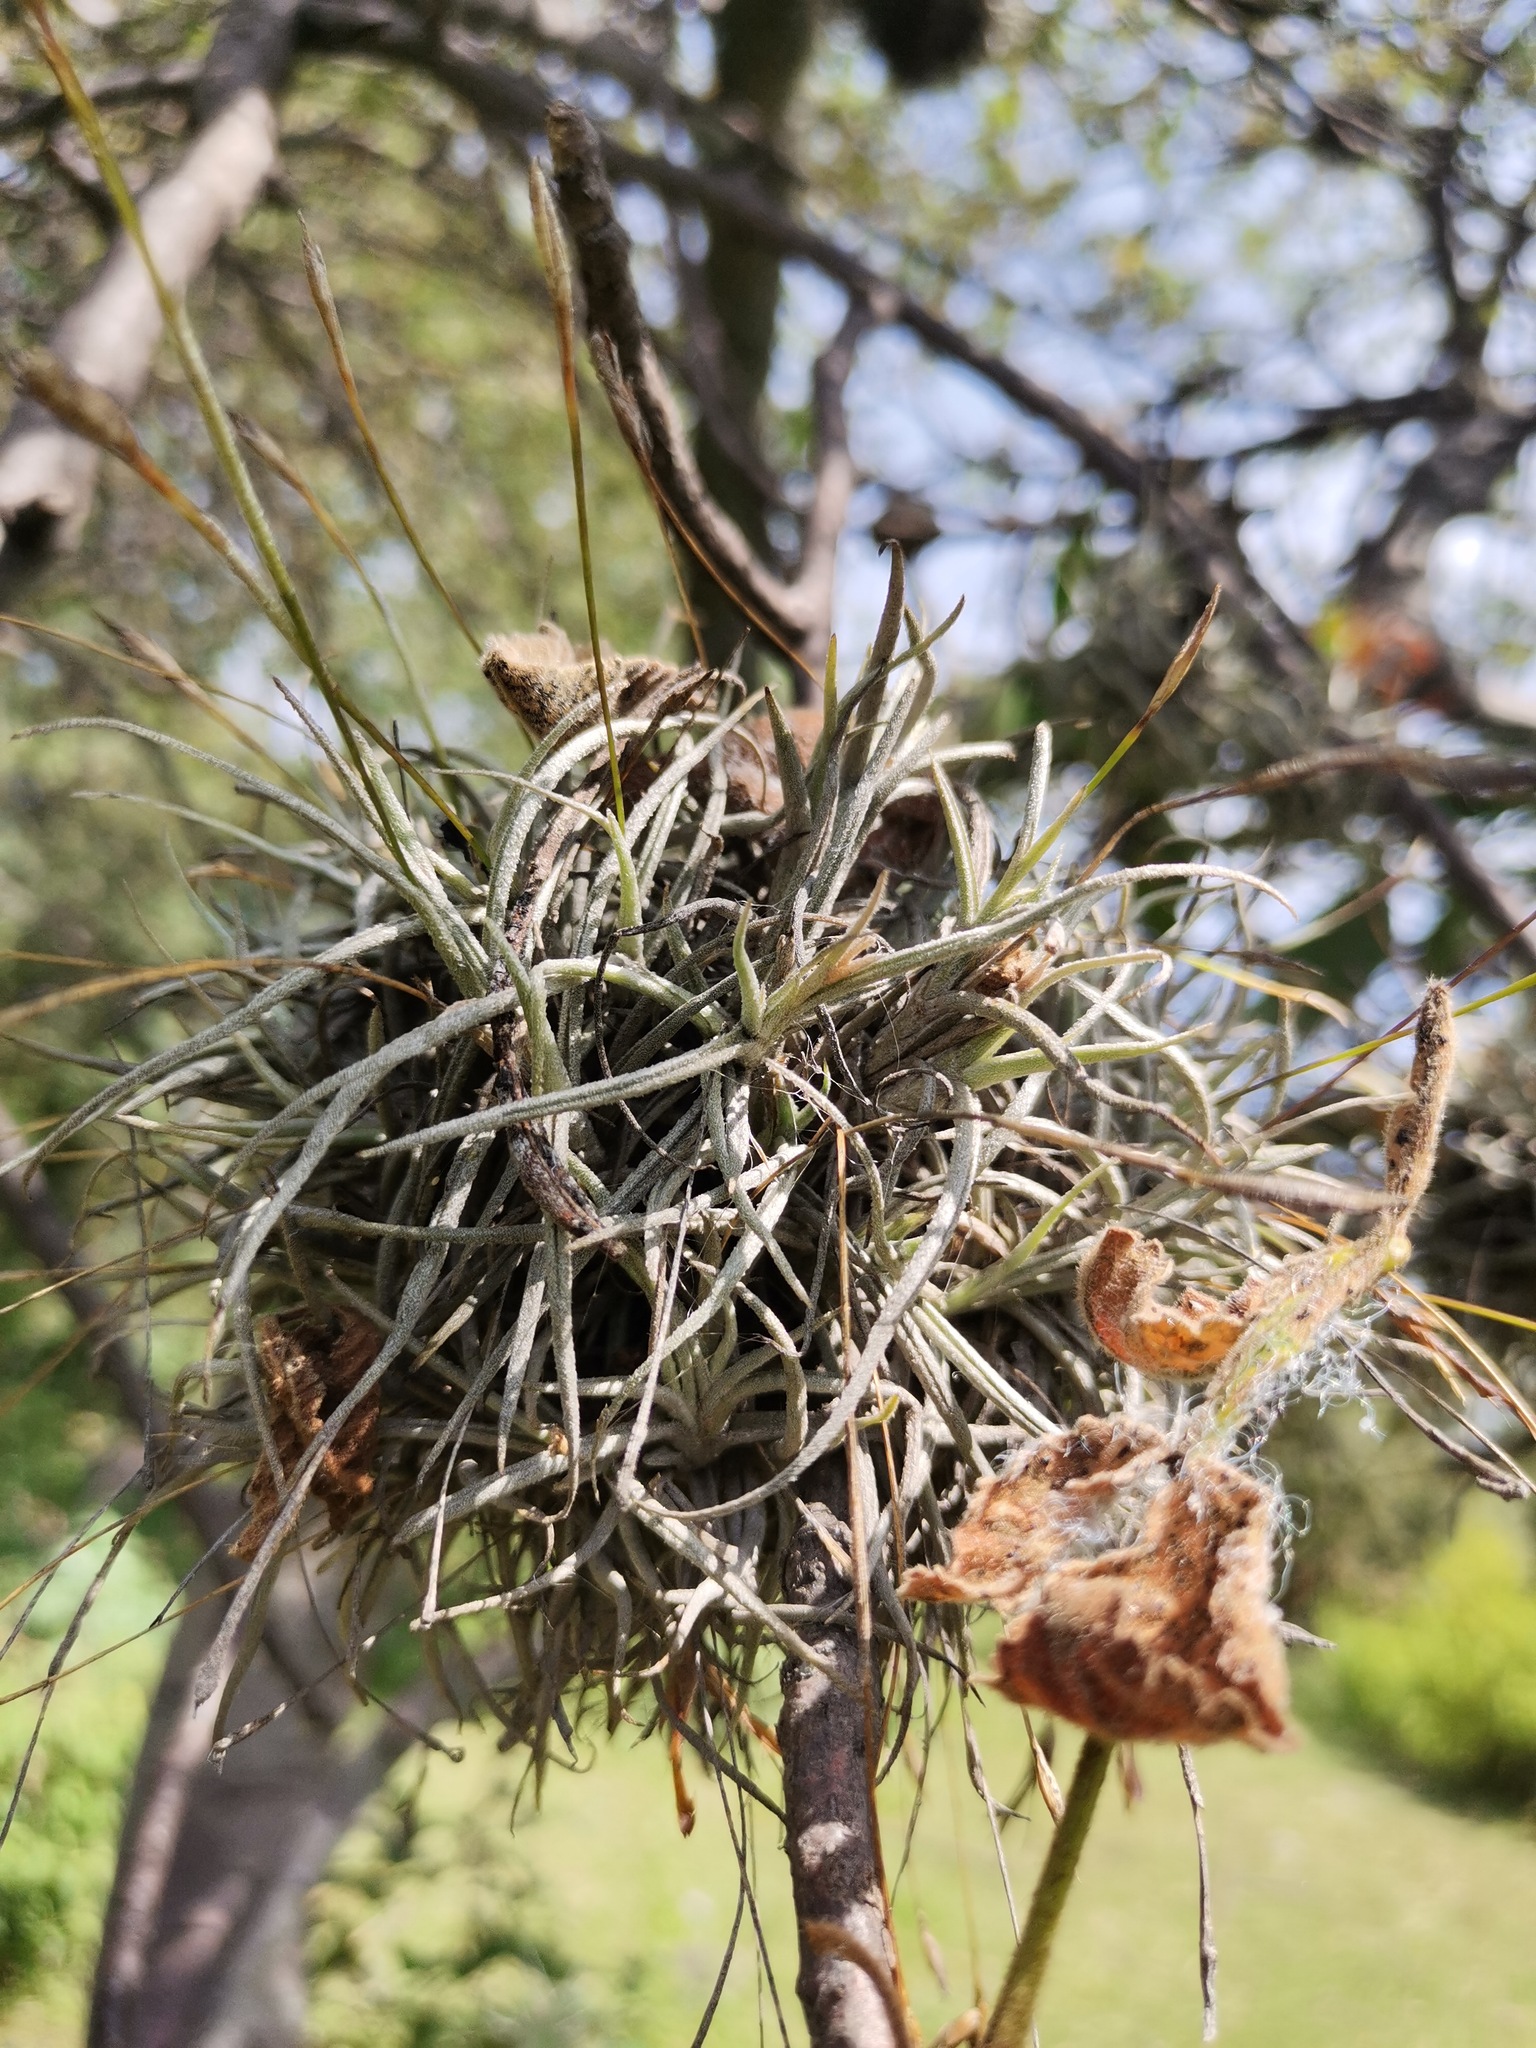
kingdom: Plantae
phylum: Tracheophyta
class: Liliopsida
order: Poales
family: Bromeliaceae
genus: Tillandsia
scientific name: Tillandsia recurvata
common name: Small ballmoss
